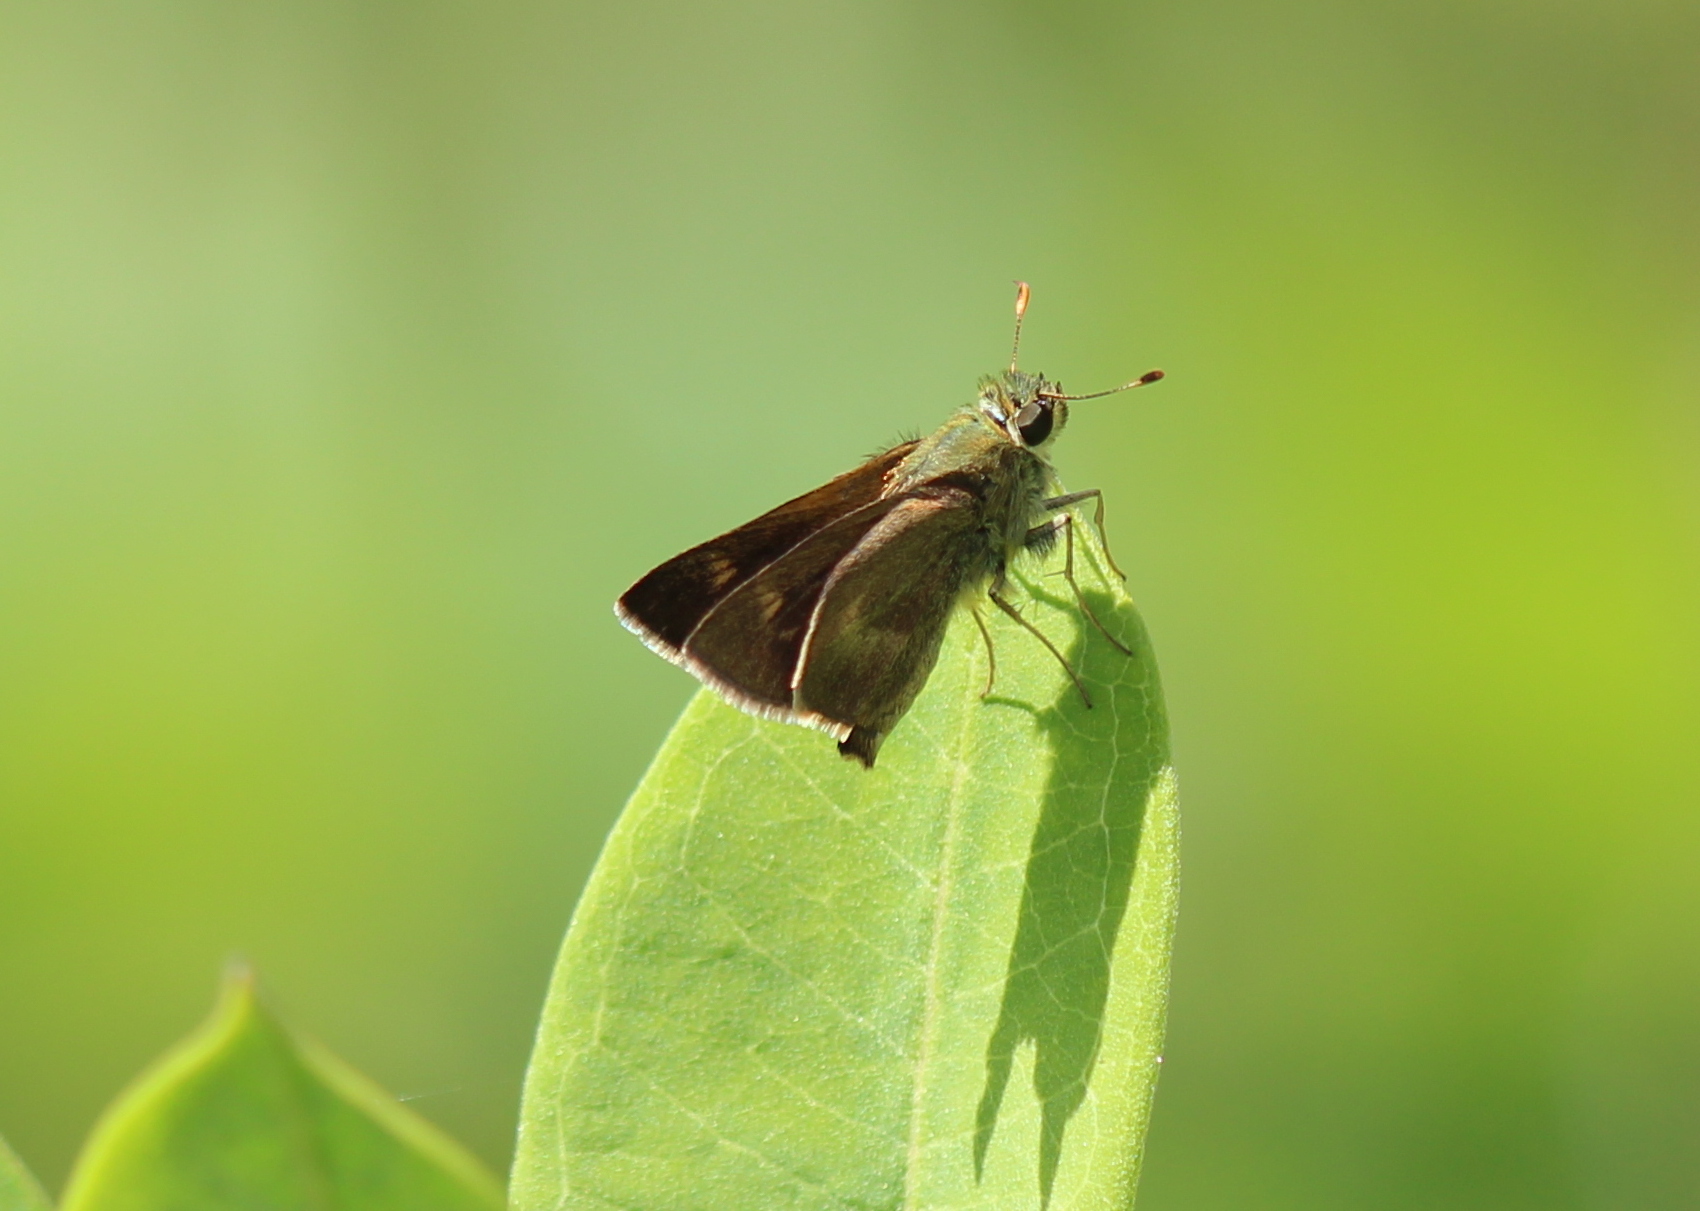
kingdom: Animalia
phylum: Arthropoda
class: Insecta
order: Lepidoptera
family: Hesperiidae
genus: Polites
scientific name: Polites egeremet
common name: Northern broken-dash
